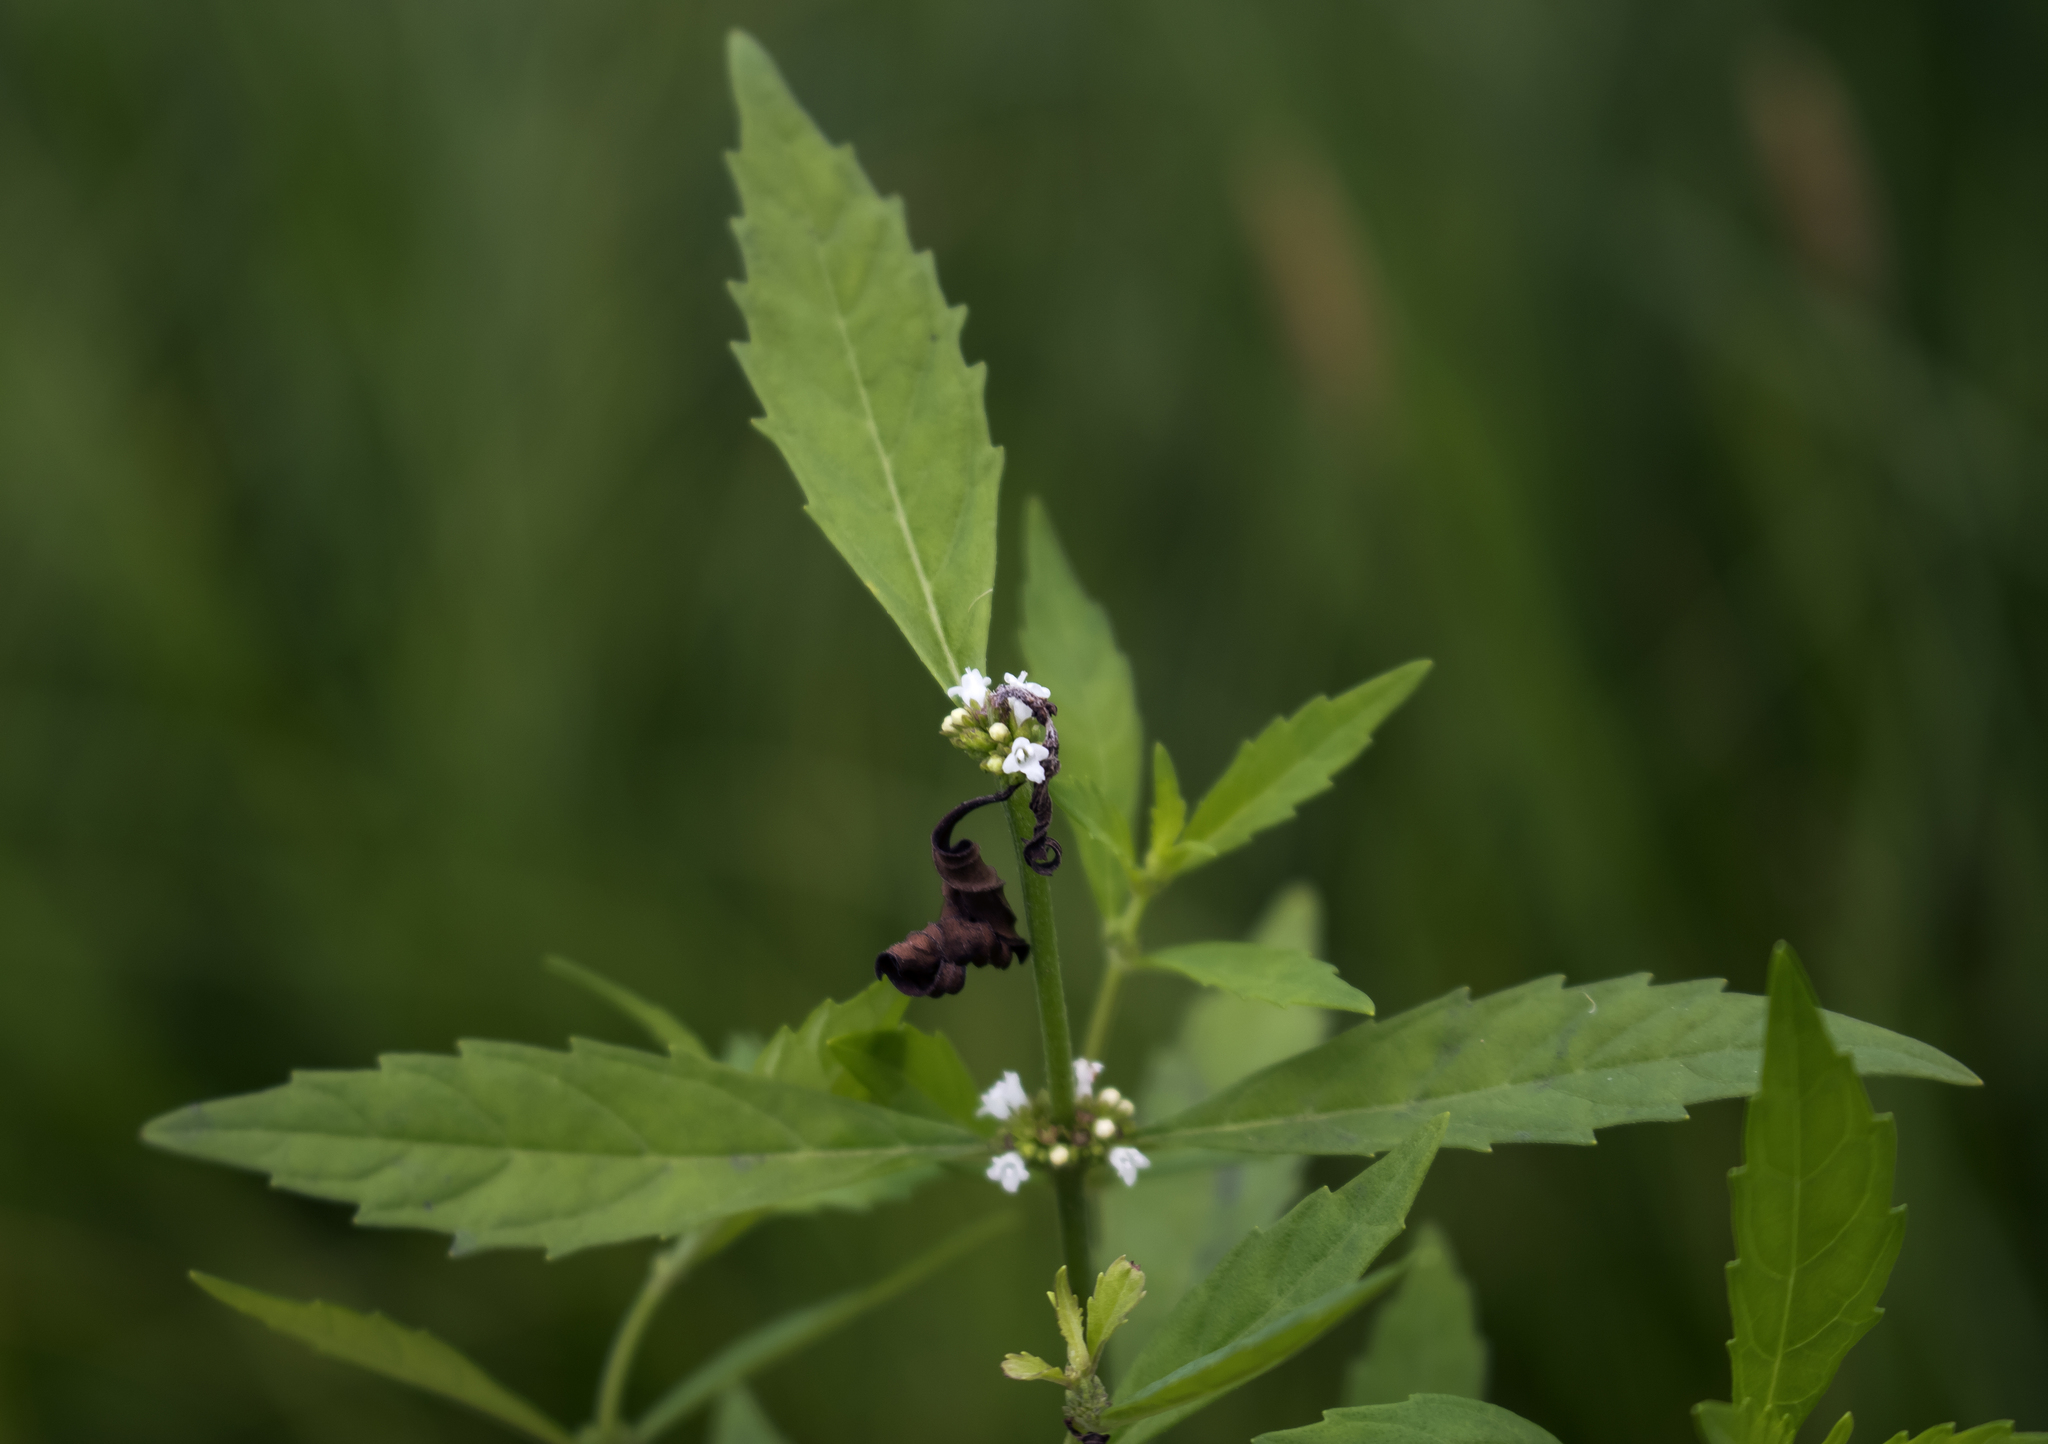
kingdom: Plantae
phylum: Tracheophyta
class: Magnoliopsida
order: Lamiales
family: Lamiaceae
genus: Lycopus
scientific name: Lycopus uniflorus
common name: Northern bugleweed
